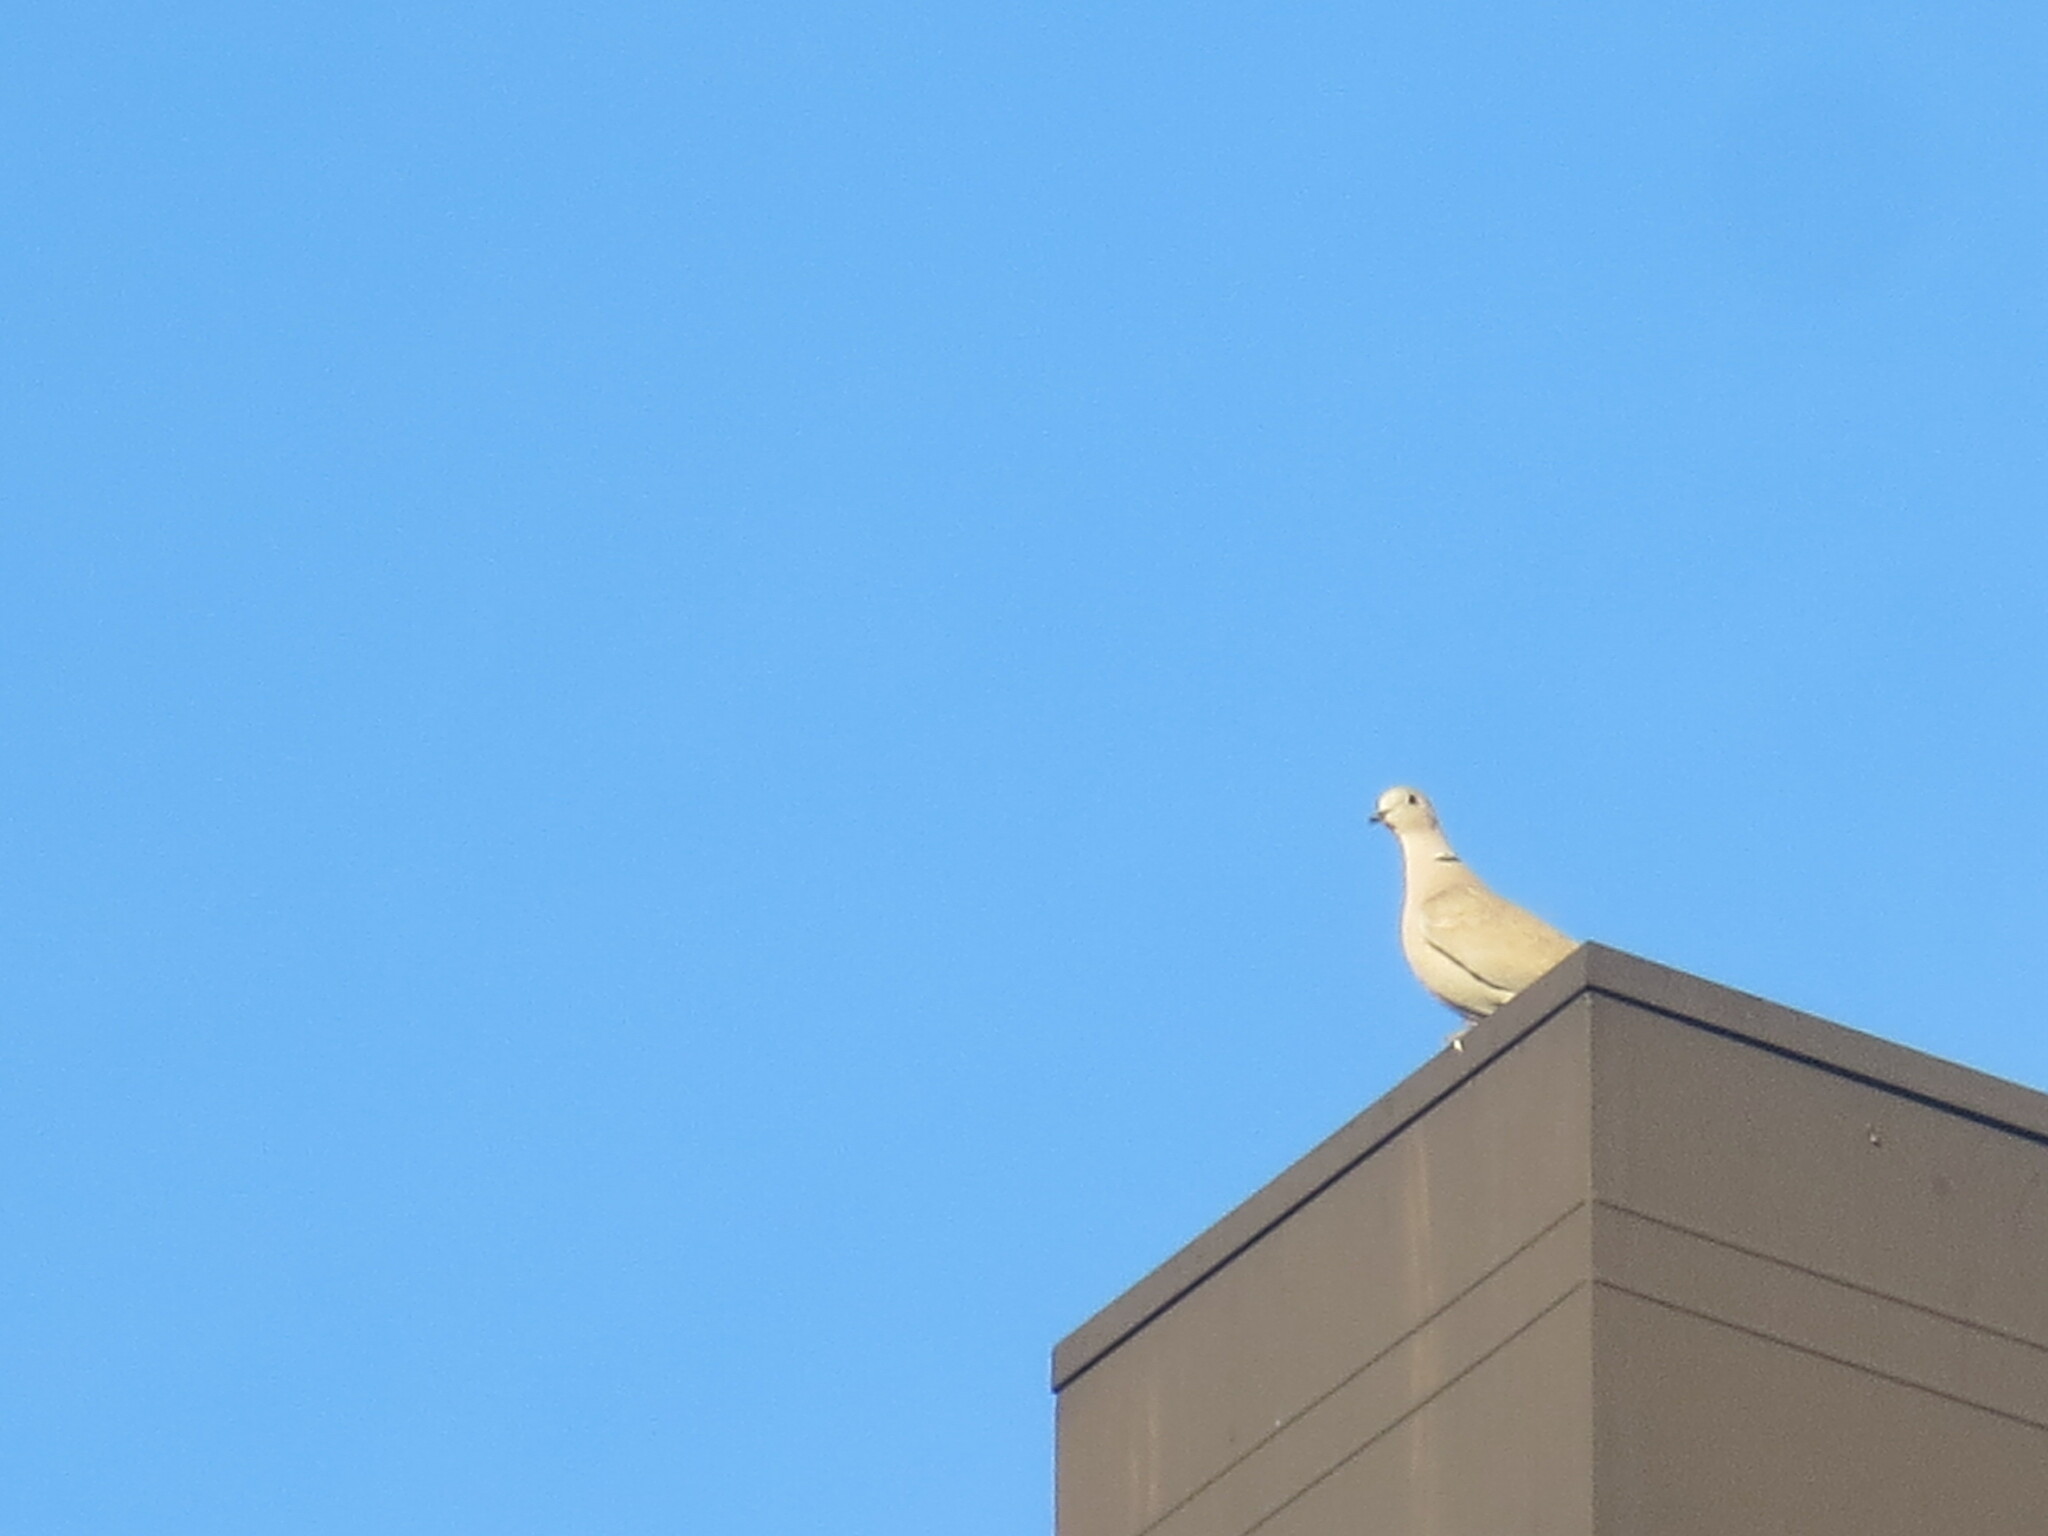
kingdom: Animalia
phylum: Chordata
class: Aves
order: Columbiformes
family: Columbidae
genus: Streptopelia
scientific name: Streptopelia decaocto
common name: Eurasian collared dove
